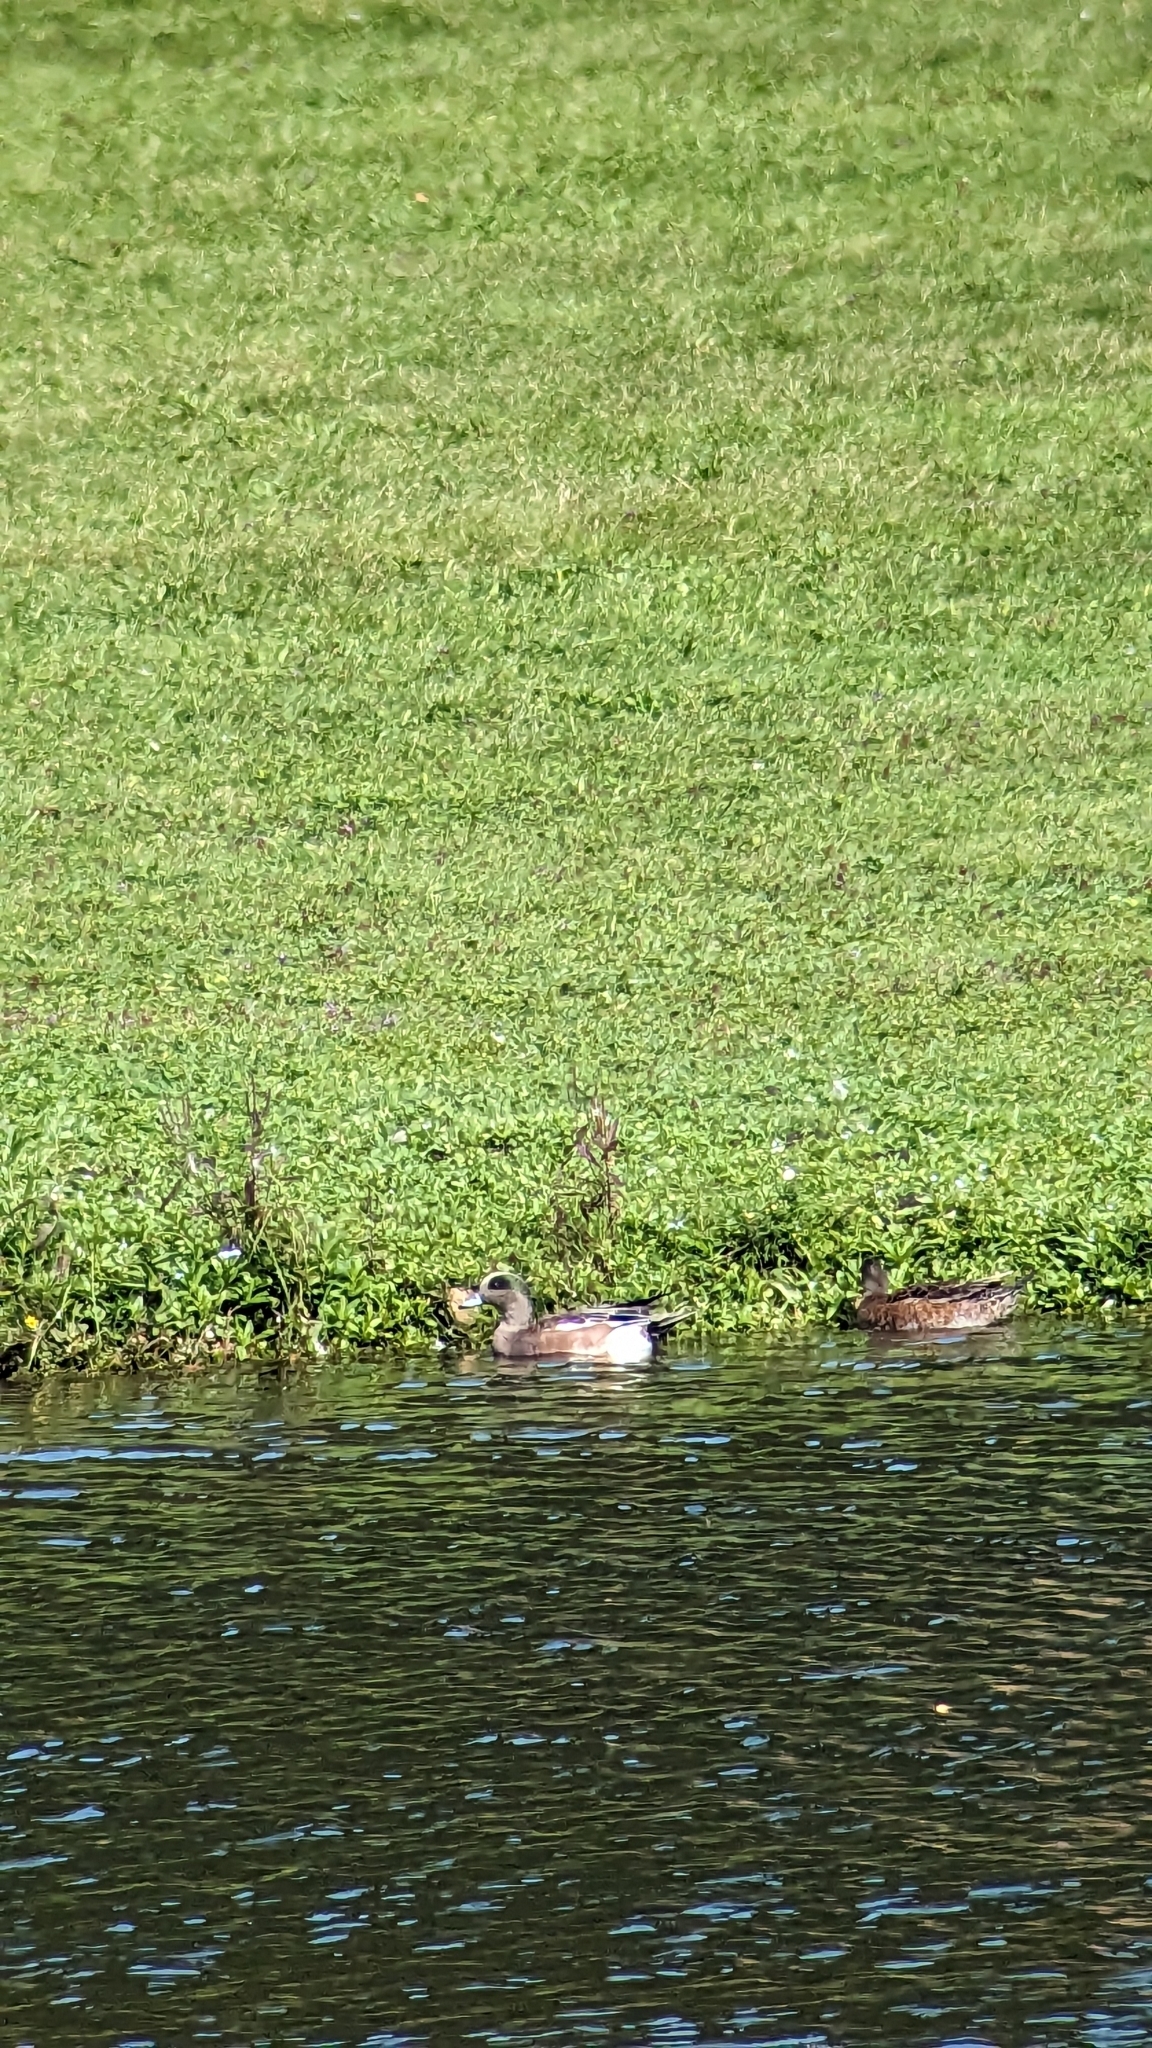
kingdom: Animalia
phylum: Chordata
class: Aves
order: Anseriformes
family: Anatidae
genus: Mareca
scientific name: Mareca americana
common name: American wigeon
